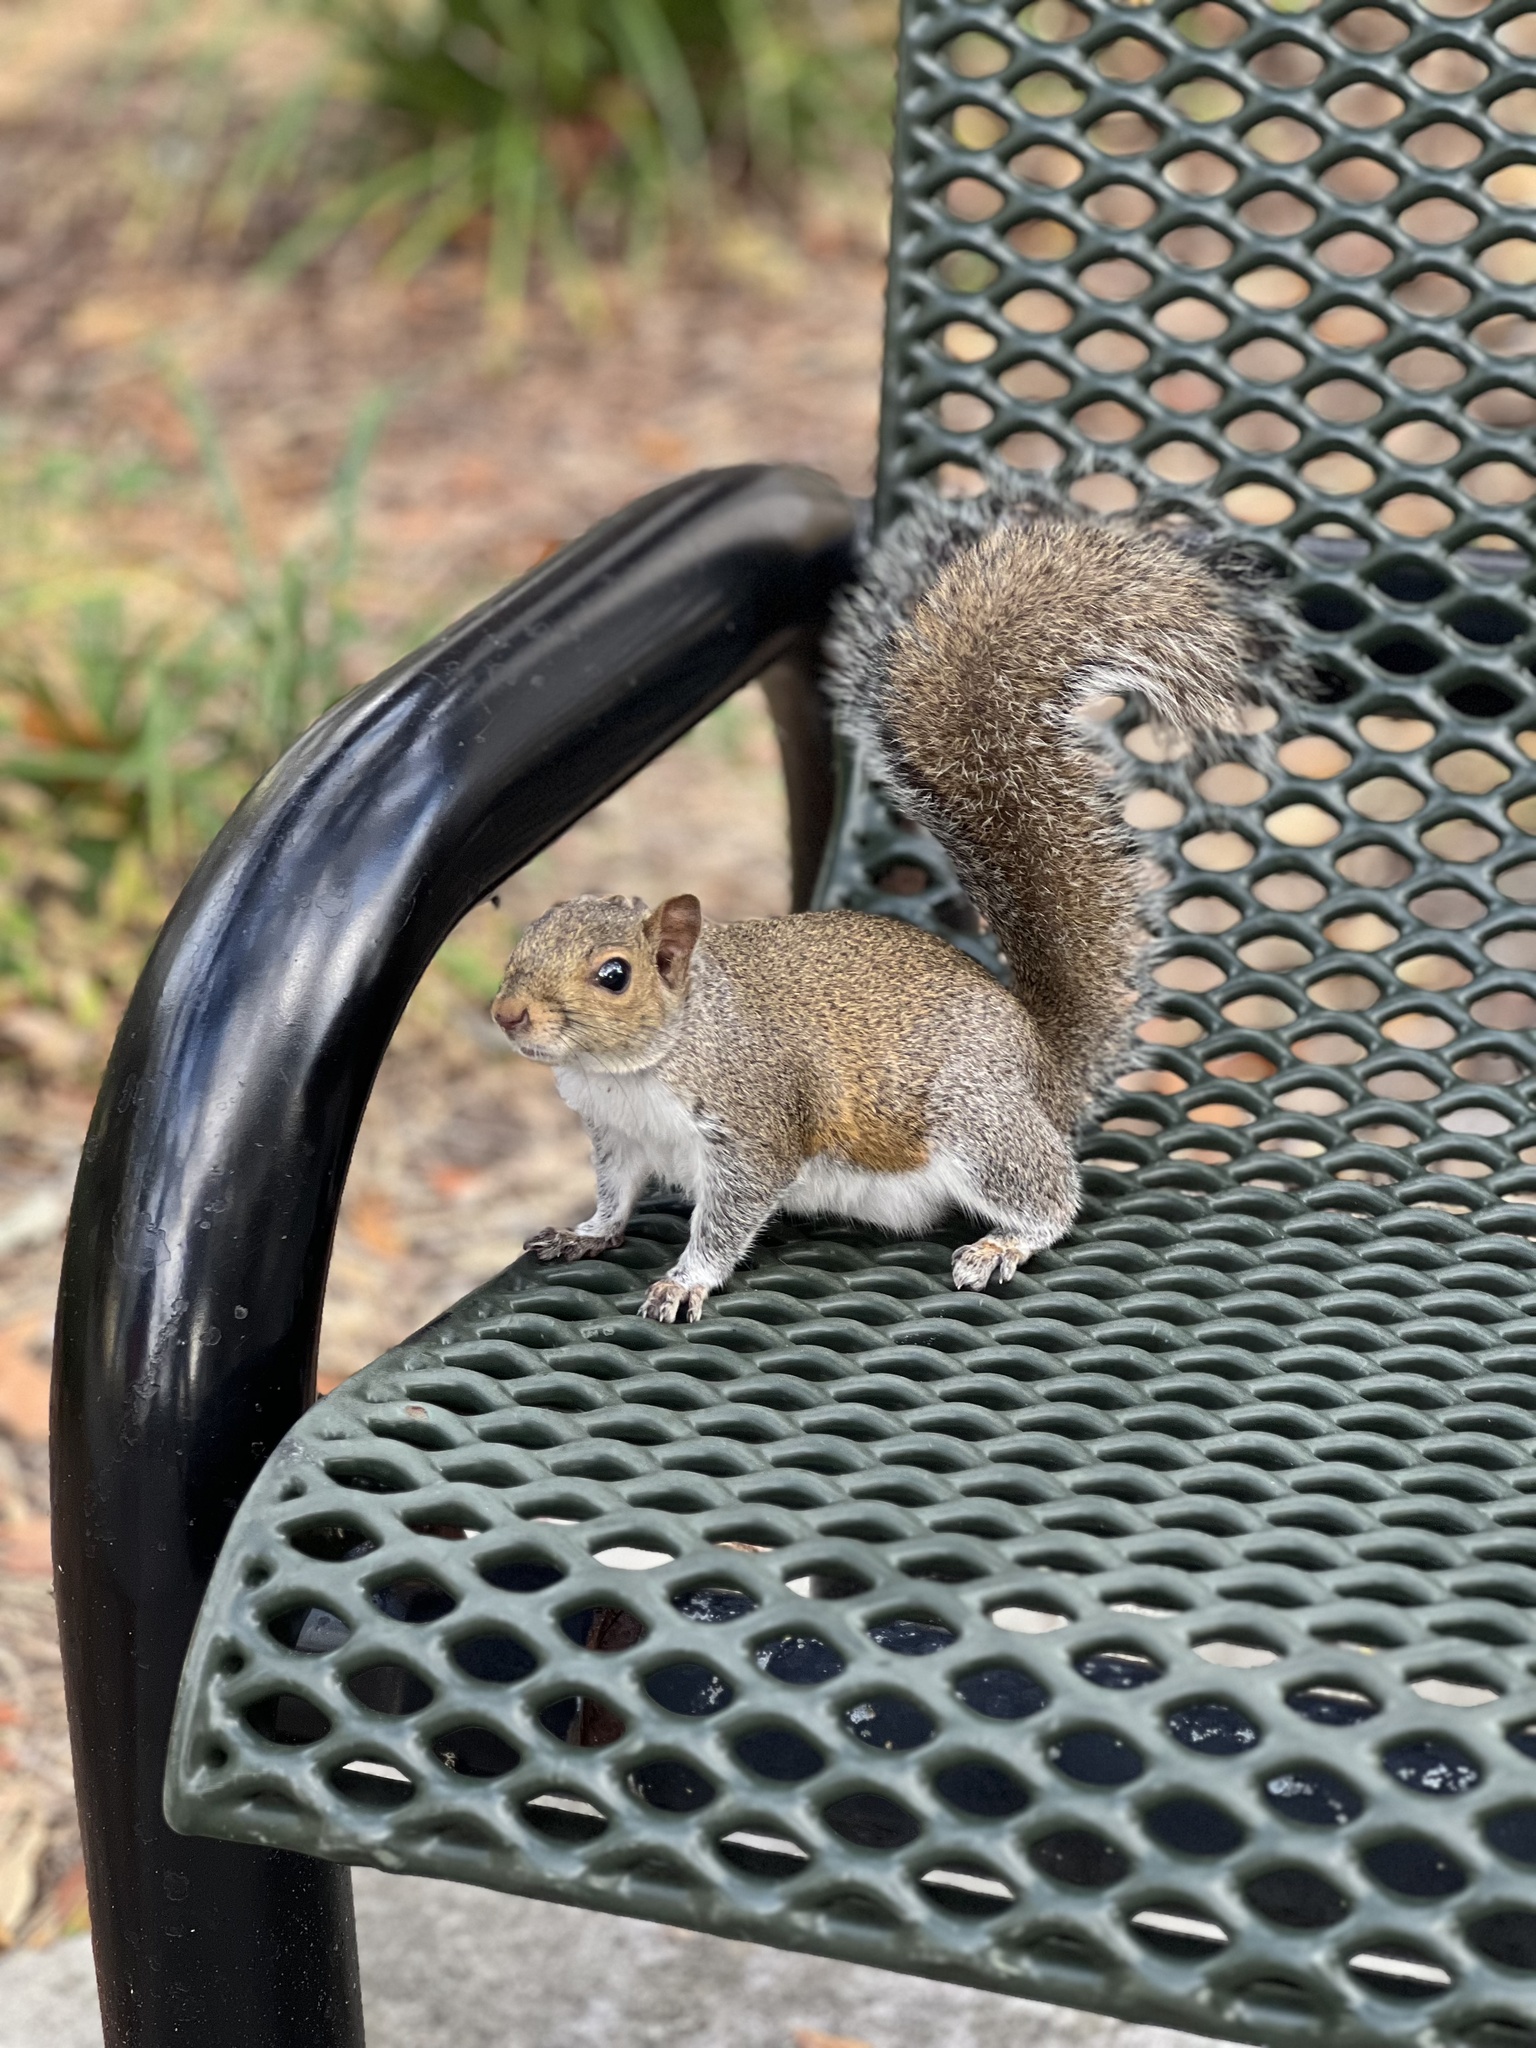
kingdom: Animalia
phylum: Chordata
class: Mammalia
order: Rodentia
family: Sciuridae
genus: Sciurus
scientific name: Sciurus carolinensis
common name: Eastern gray squirrel
